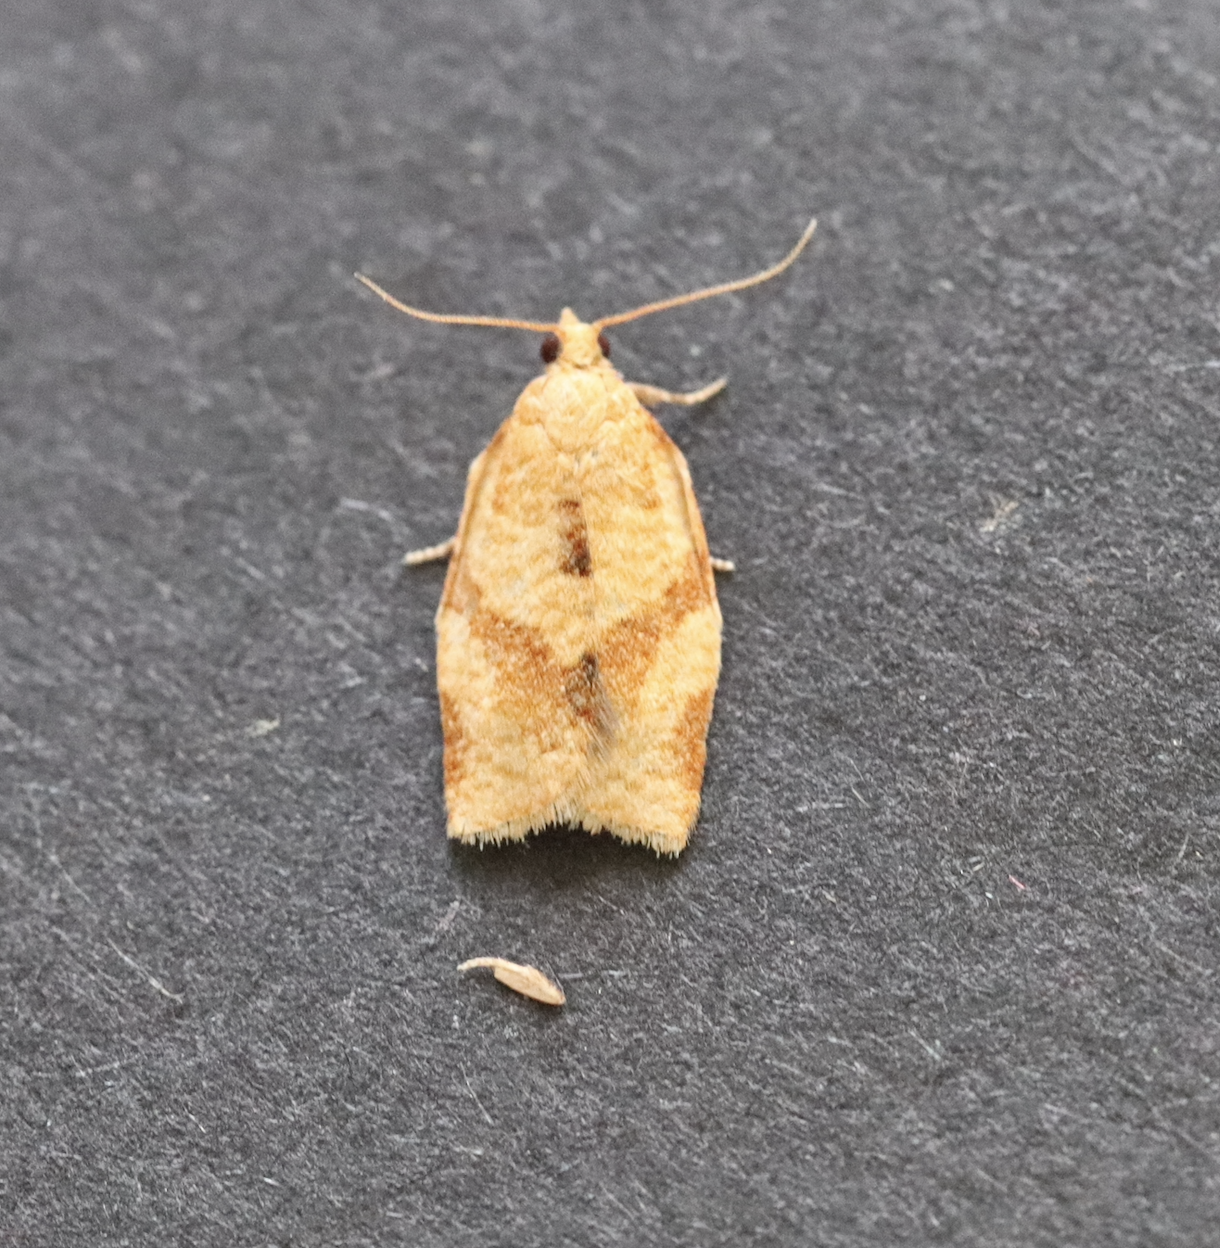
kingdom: Animalia
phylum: Arthropoda
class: Insecta
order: Lepidoptera
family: Tortricidae
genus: Clepsis
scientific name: Clepsis consimilana
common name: Privet tortrix
